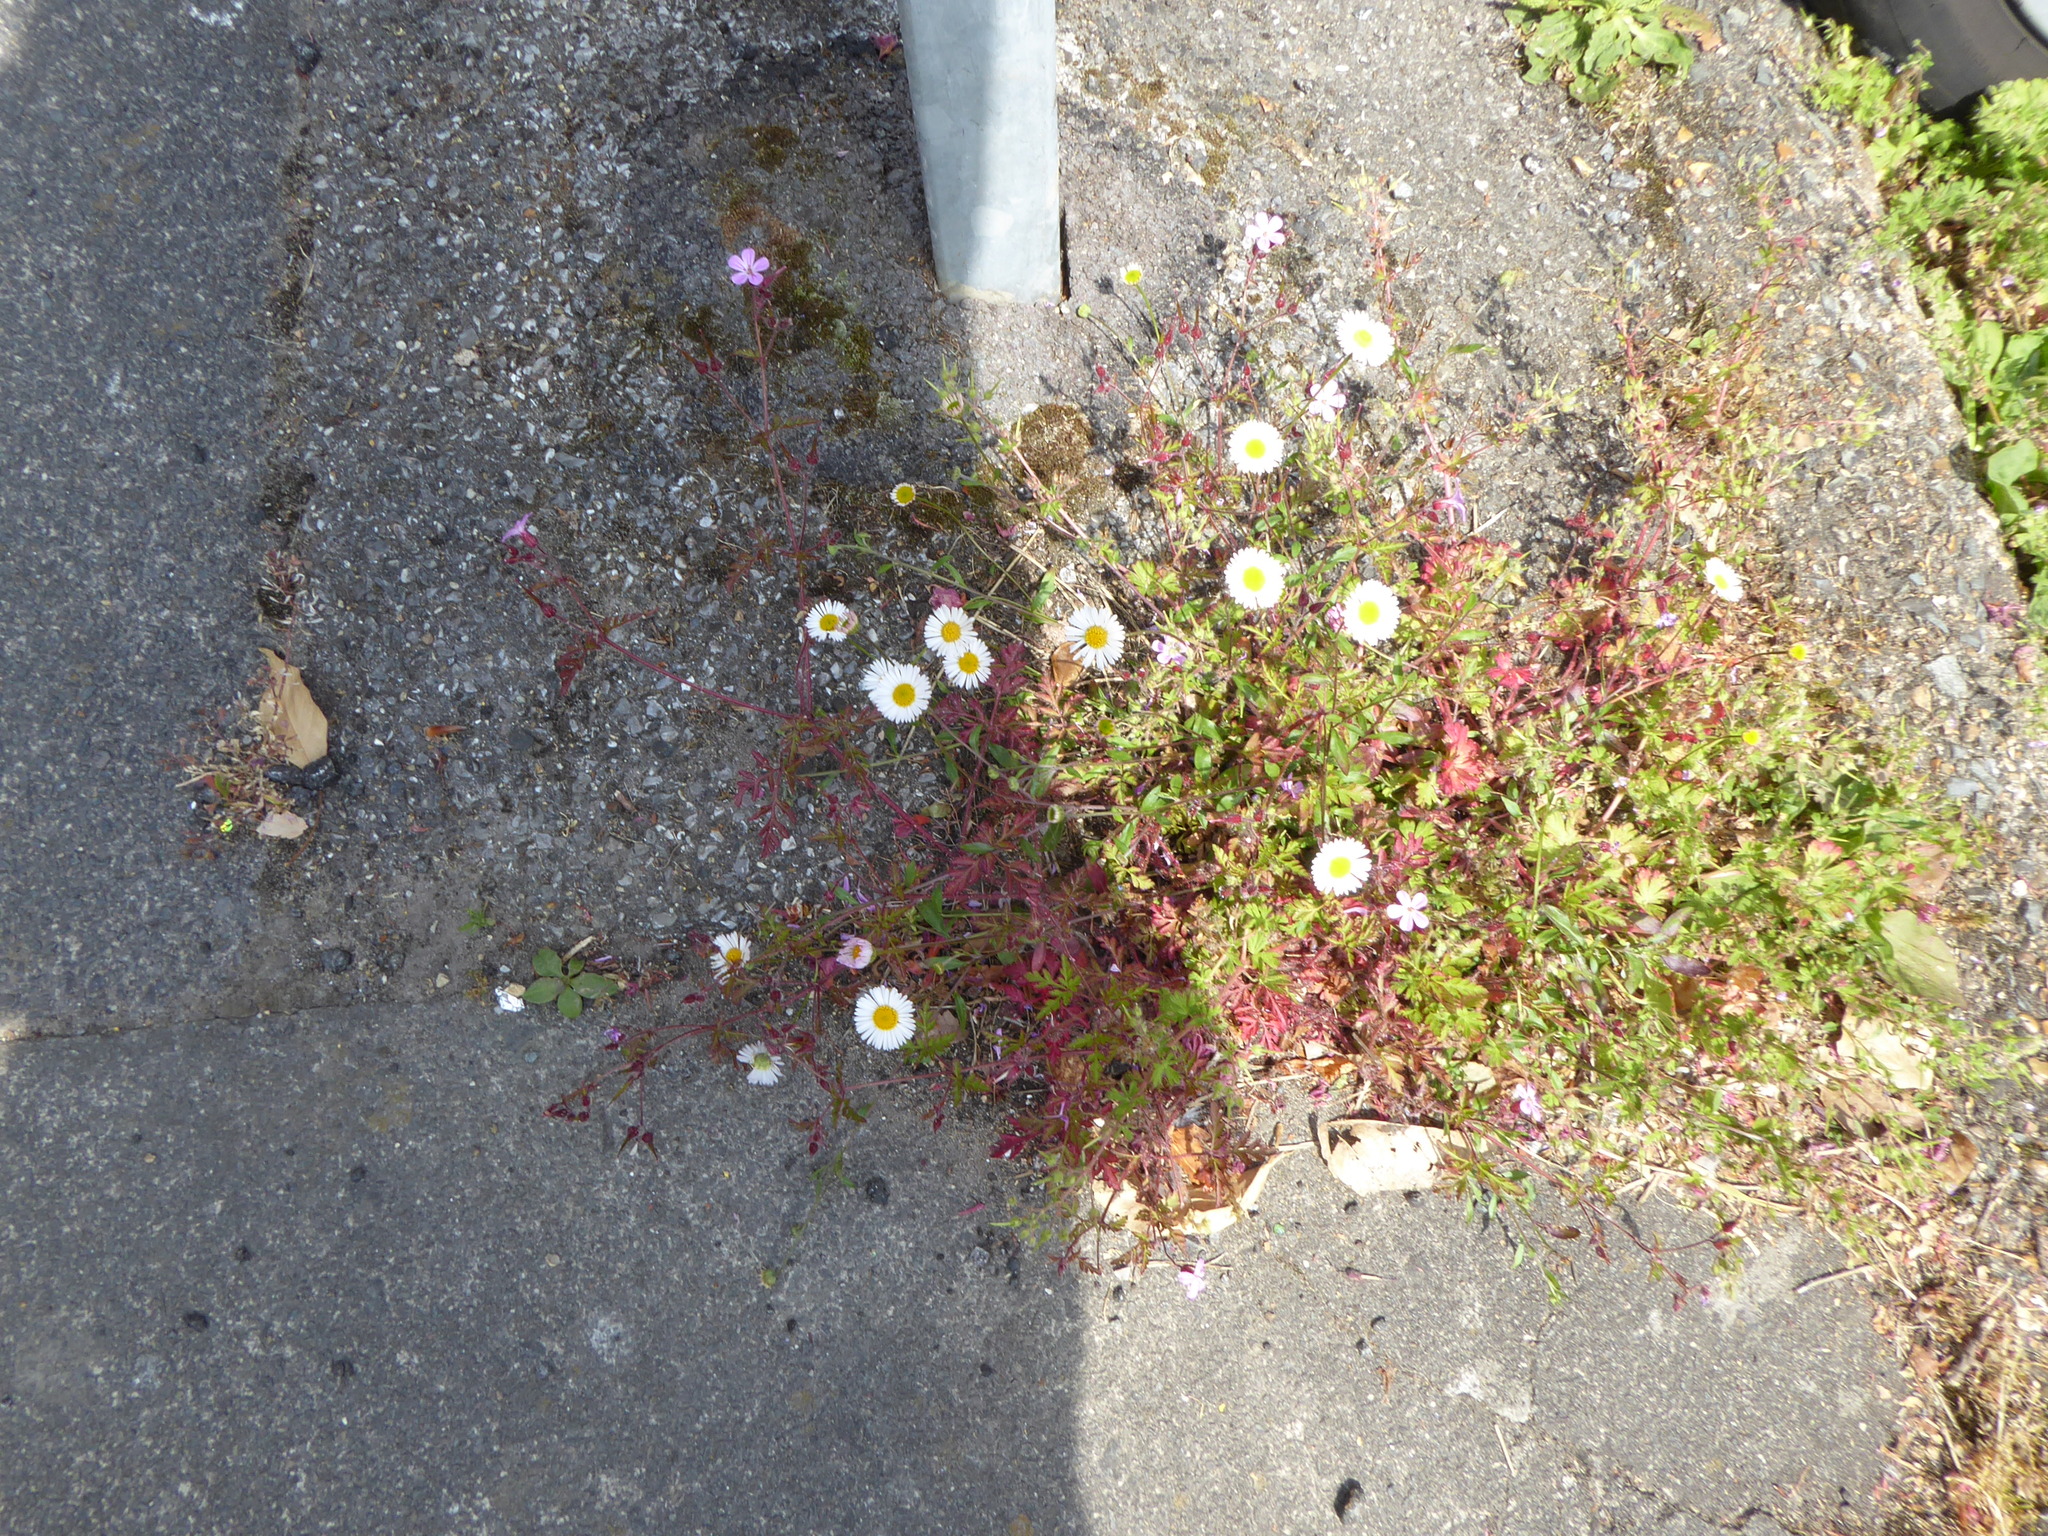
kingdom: Plantae
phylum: Tracheophyta
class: Magnoliopsida
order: Asterales
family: Asteraceae
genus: Erigeron
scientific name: Erigeron karvinskianus
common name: Mexican fleabane
